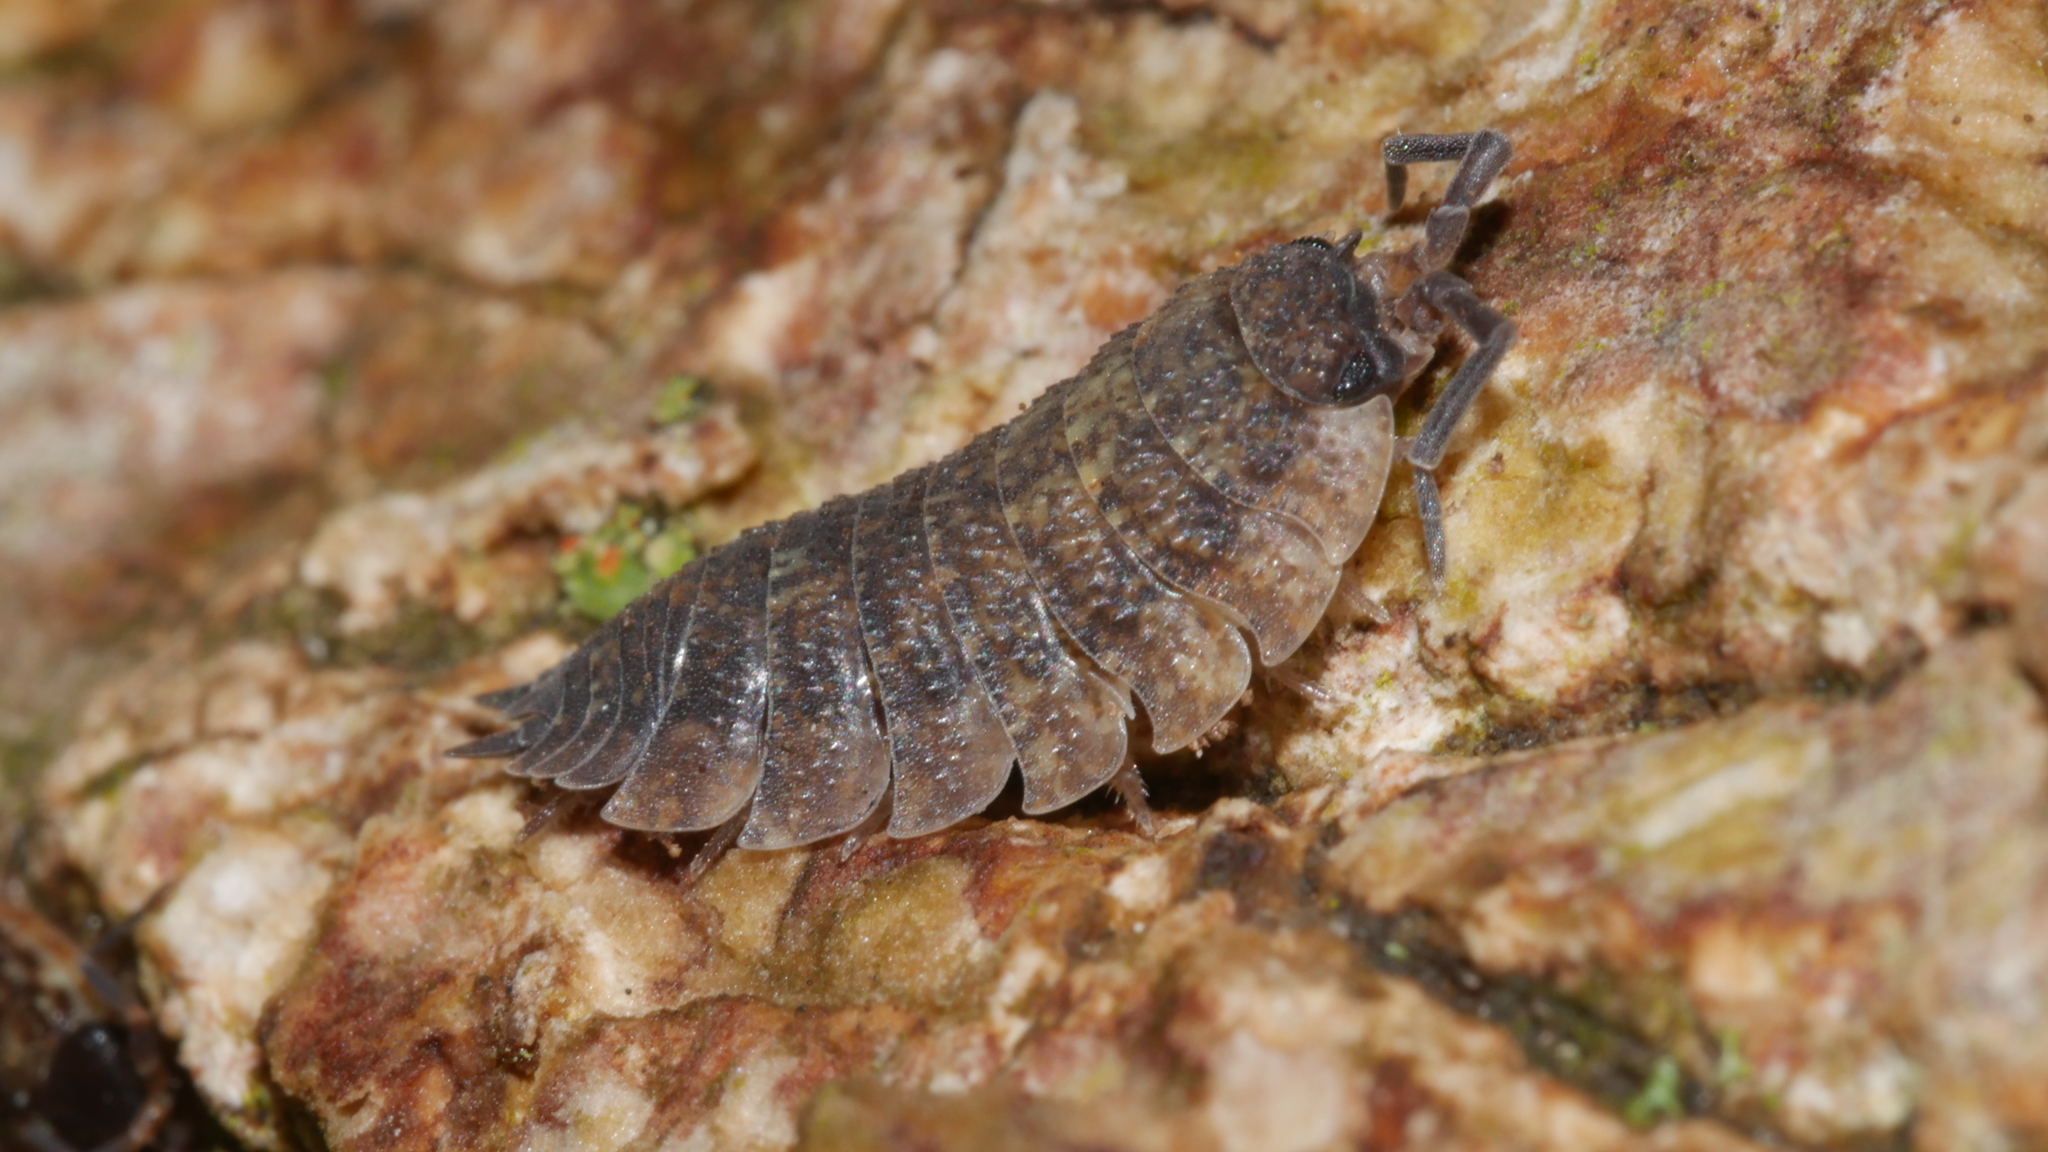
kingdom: Animalia
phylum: Arthropoda
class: Malacostraca
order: Isopoda
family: Porcellionidae
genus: Porcellio
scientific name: Porcellio scaber
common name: Common rough woodlouse
